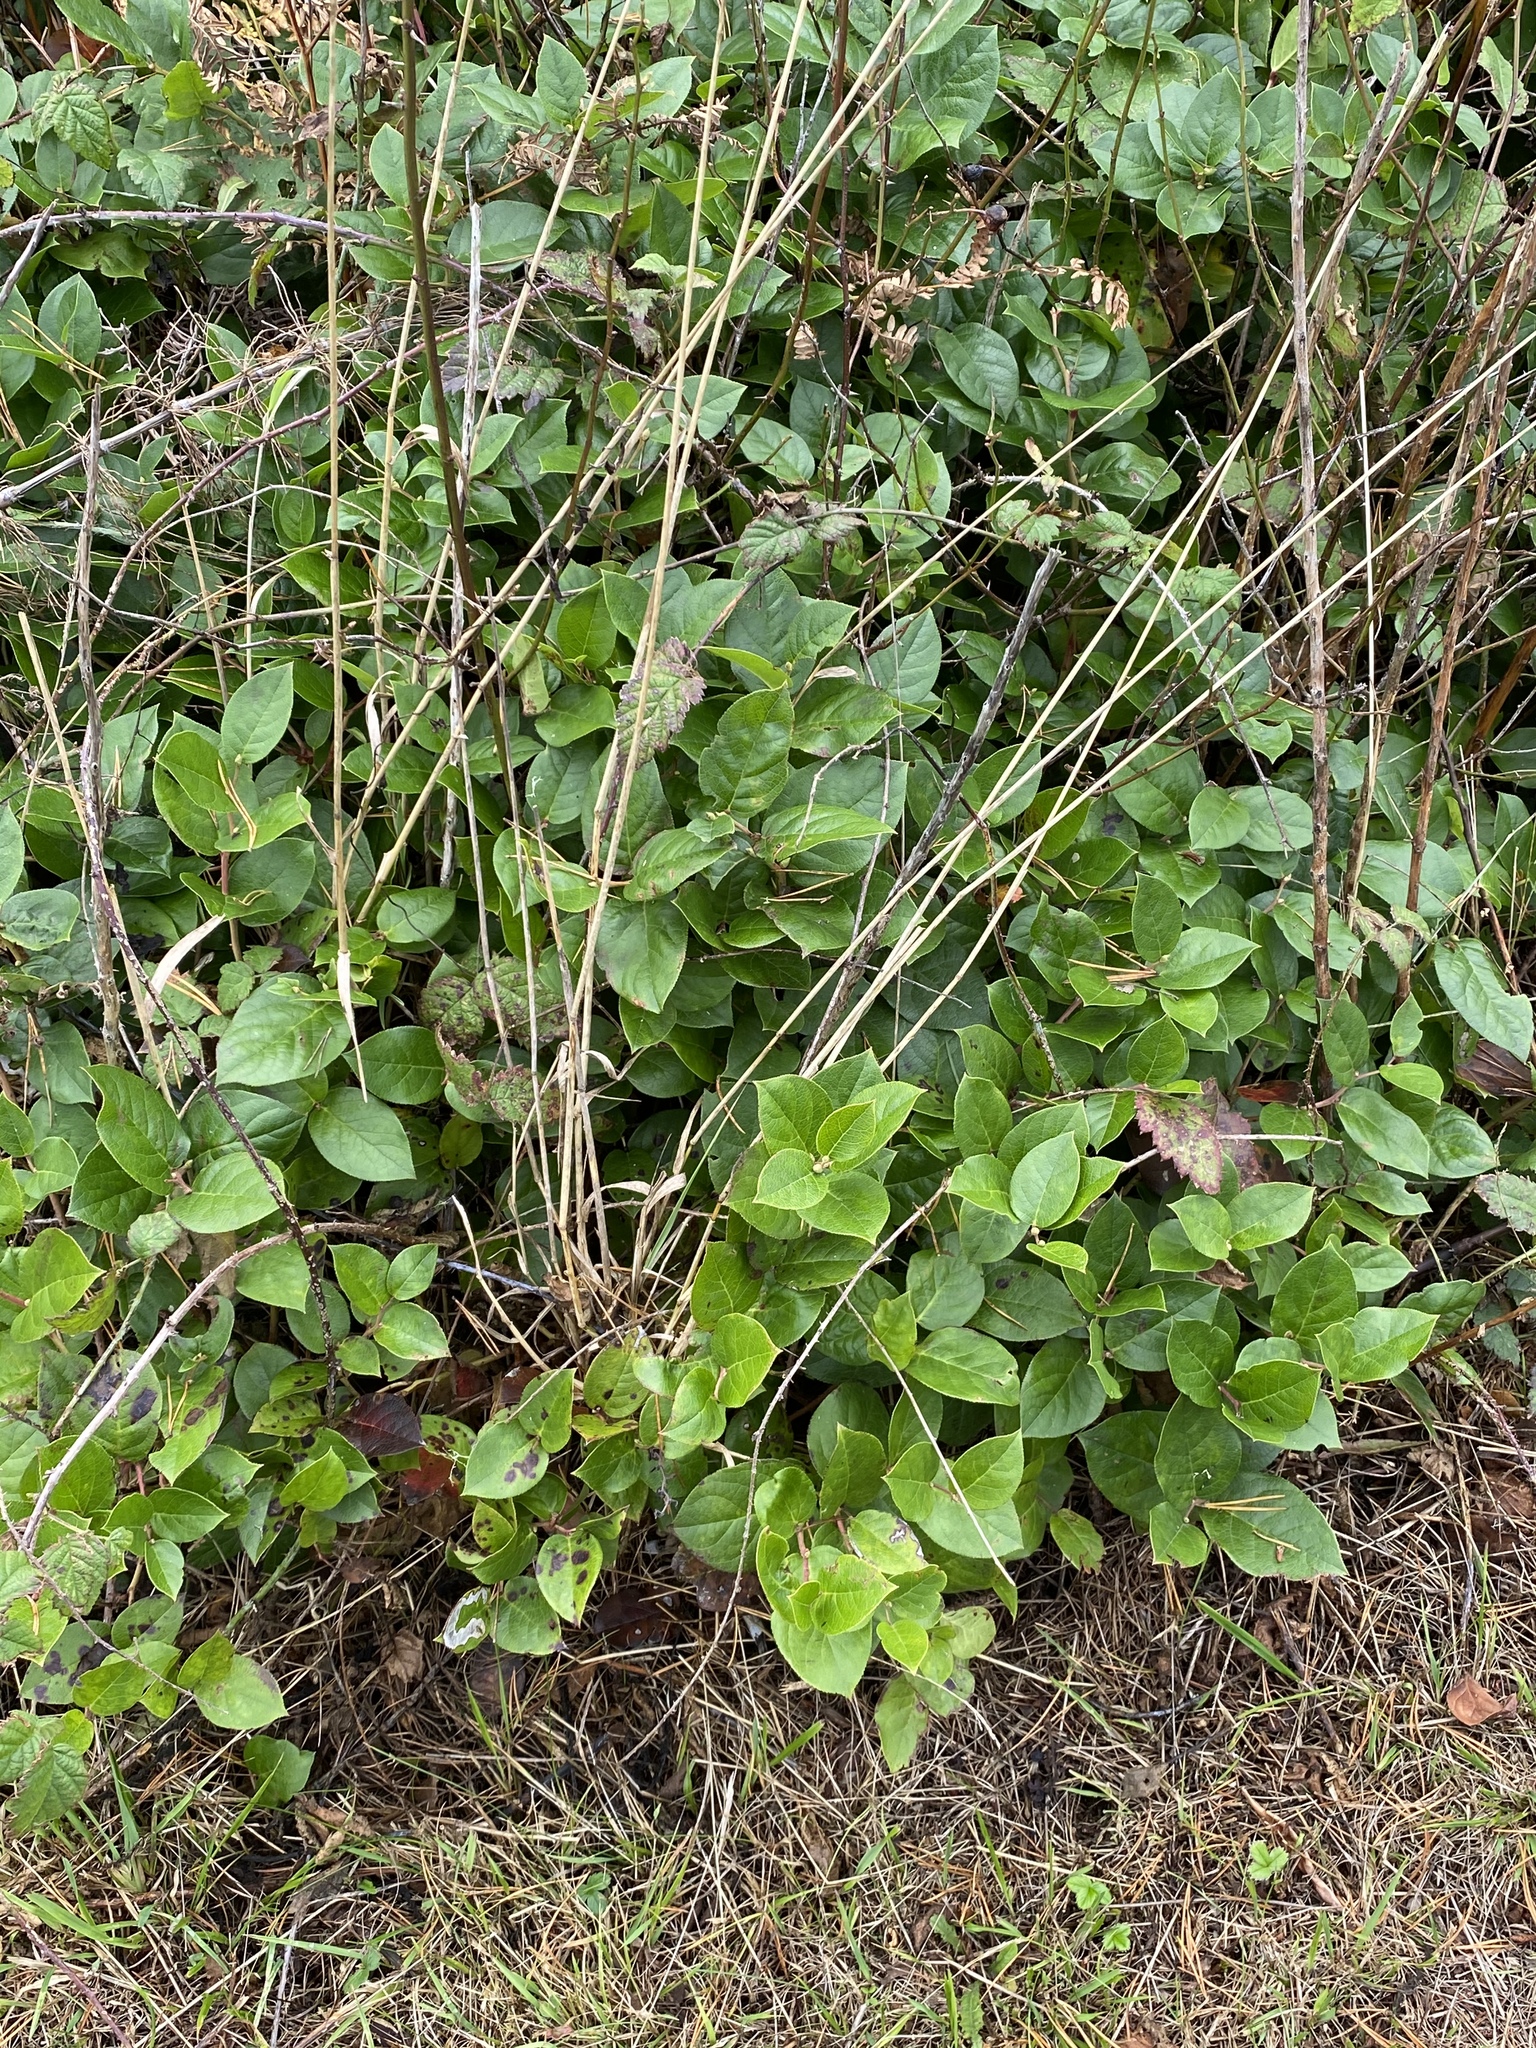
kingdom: Plantae
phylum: Tracheophyta
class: Magnoliopsida
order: Ericales
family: Ericaceae
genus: Gaultheria
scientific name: Gaultheria shallon
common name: Shallon
